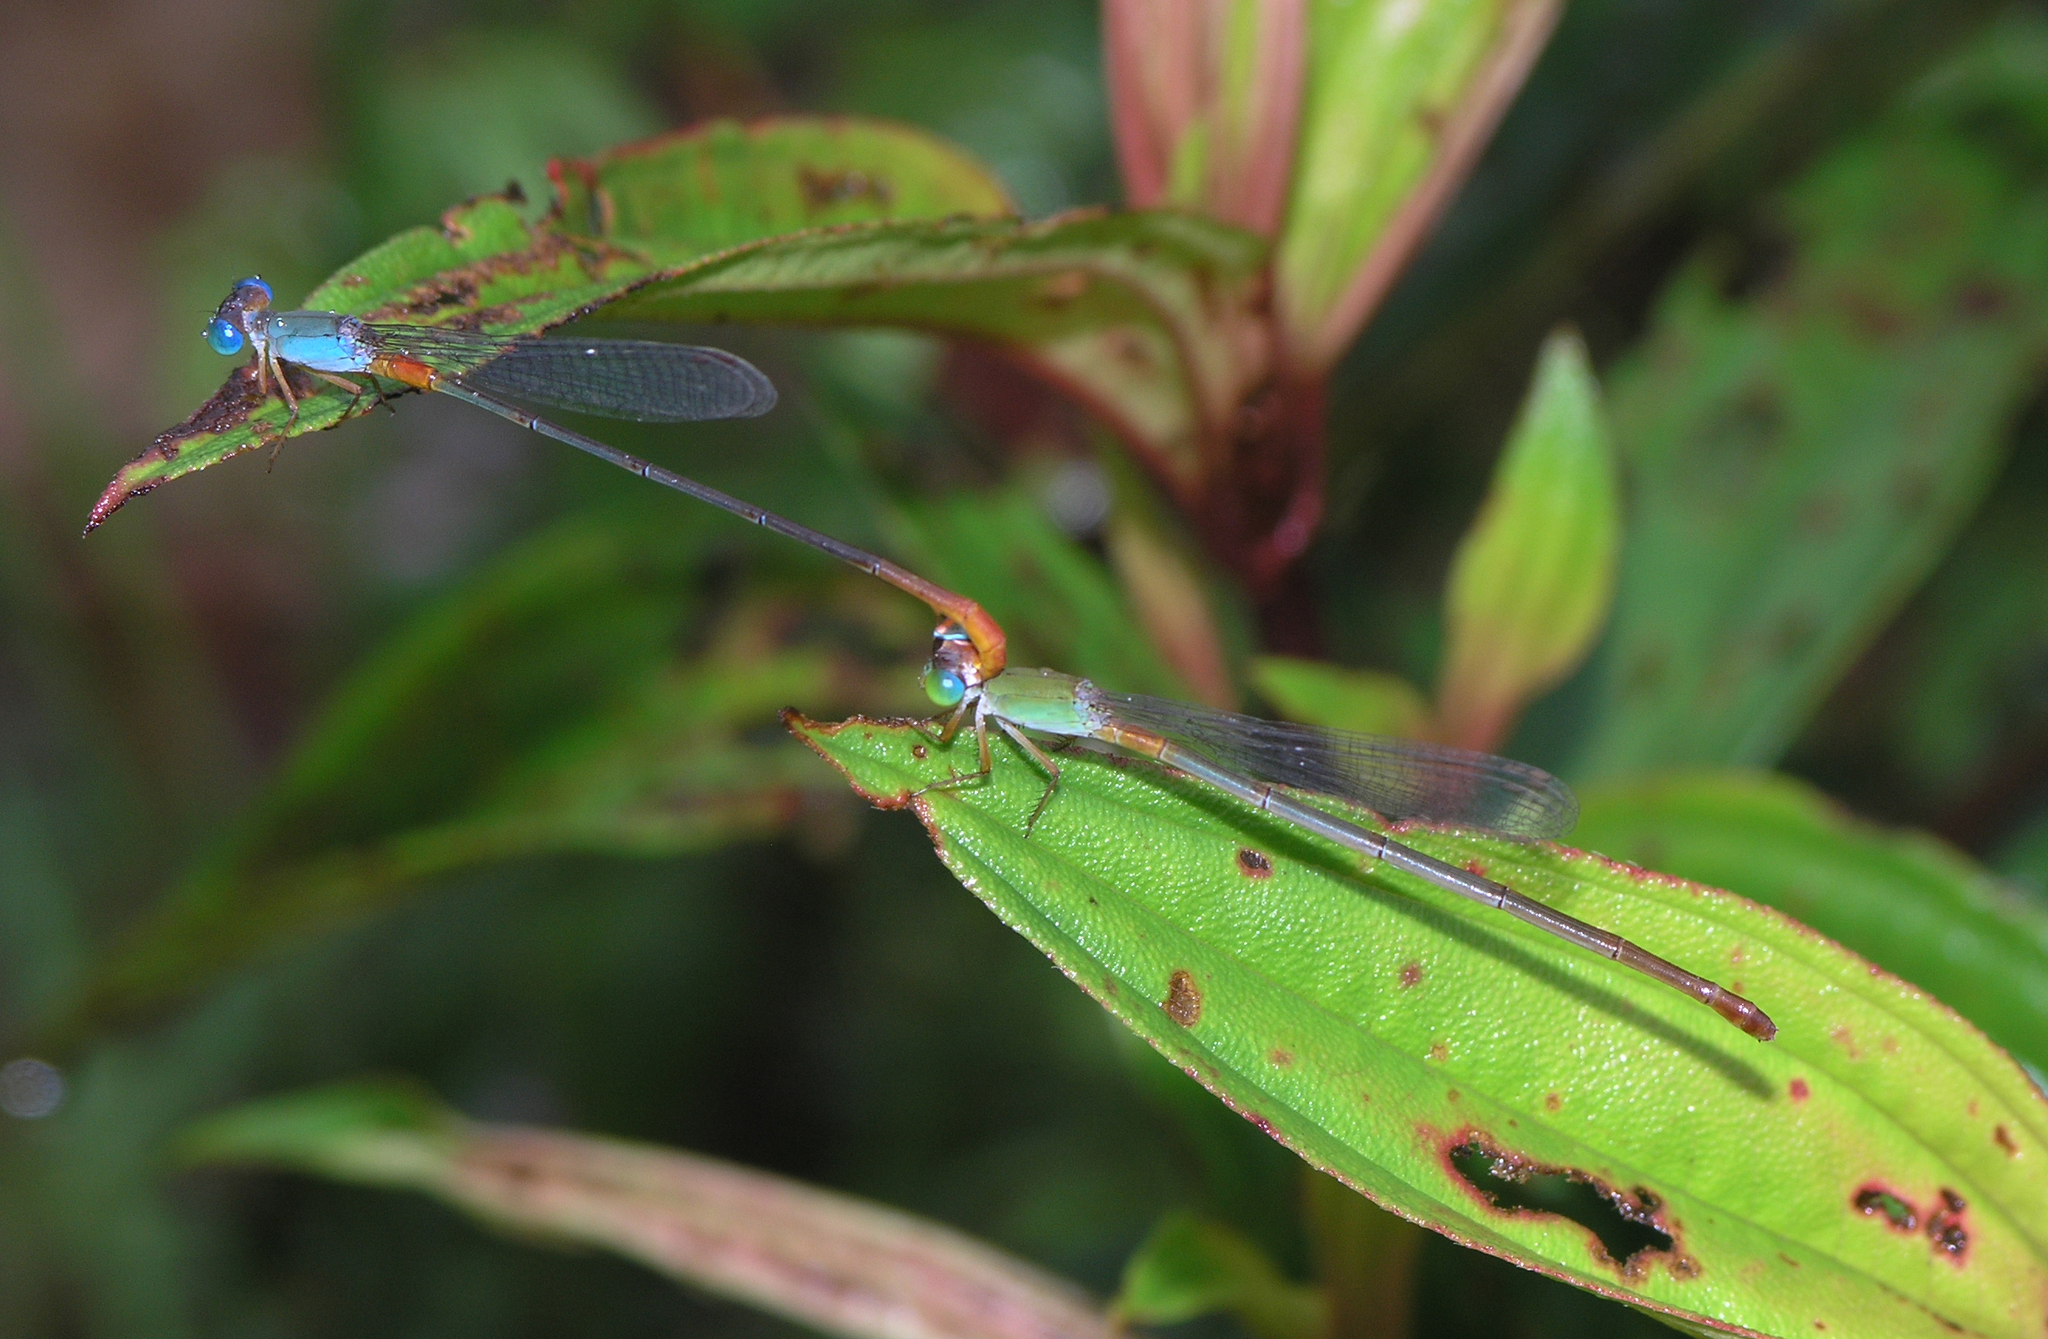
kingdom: Animalia
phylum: Arthropoda
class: Insecta
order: Odonata
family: Coenagrionidae
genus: Ceriagrion
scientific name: Ceriagrion cerinorubellum
